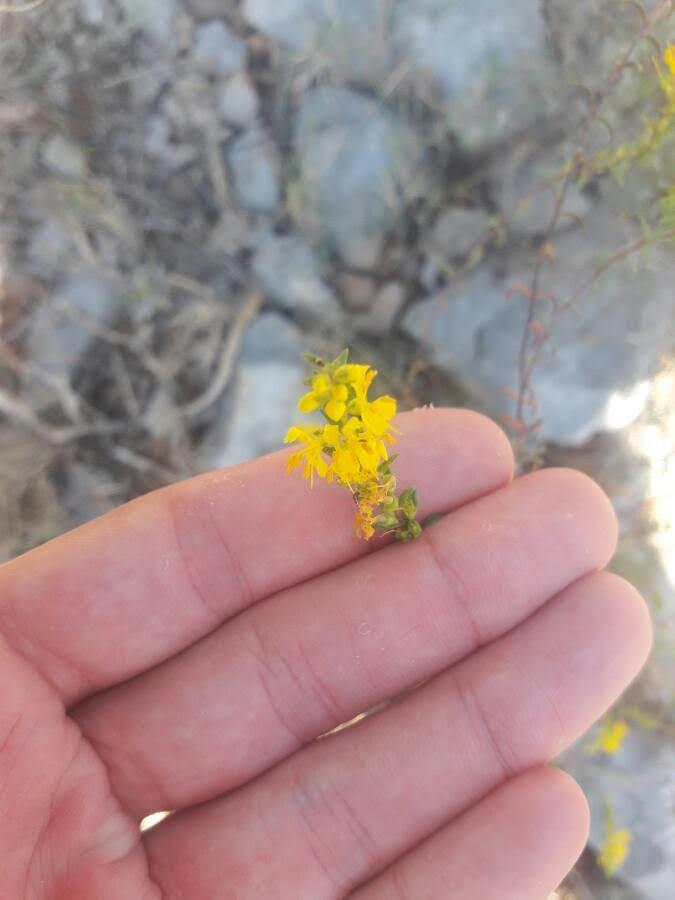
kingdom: Plantae
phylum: Tracheophyta
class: Magnoliopsida
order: Lamiales
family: Orobanchaceae
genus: Odontites
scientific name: Odontites luteus
